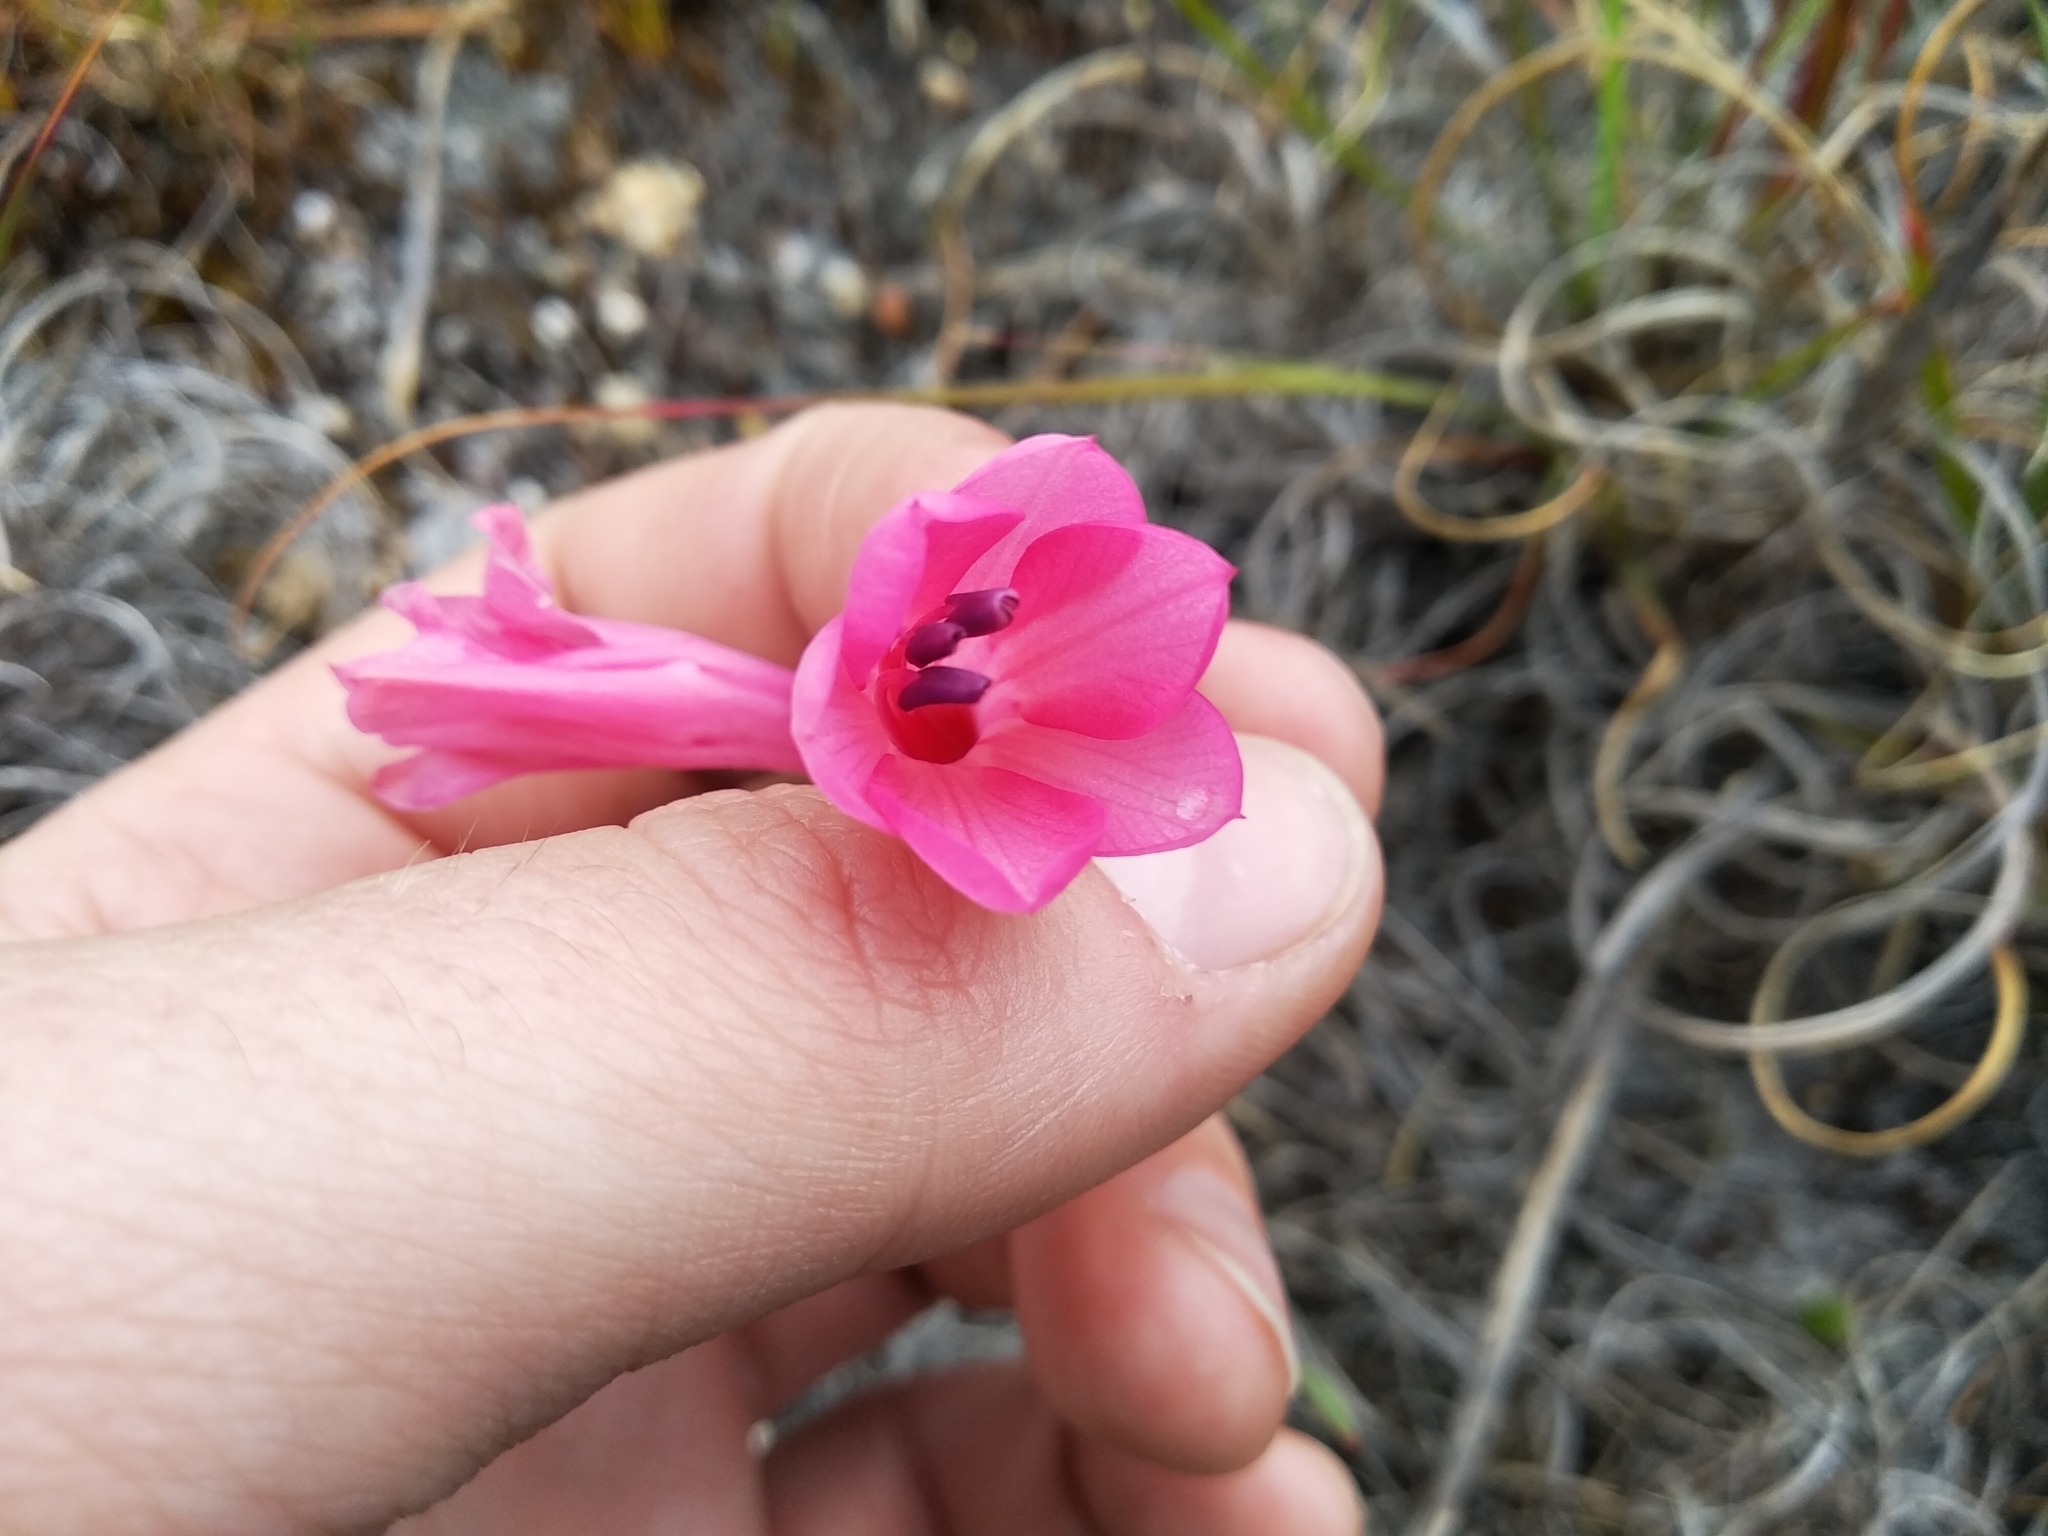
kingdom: Plantae
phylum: Tracheophyta
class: Liliopsida
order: Asparagales
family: Iridaceae
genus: Watsonia
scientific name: Watsonia coccinea
